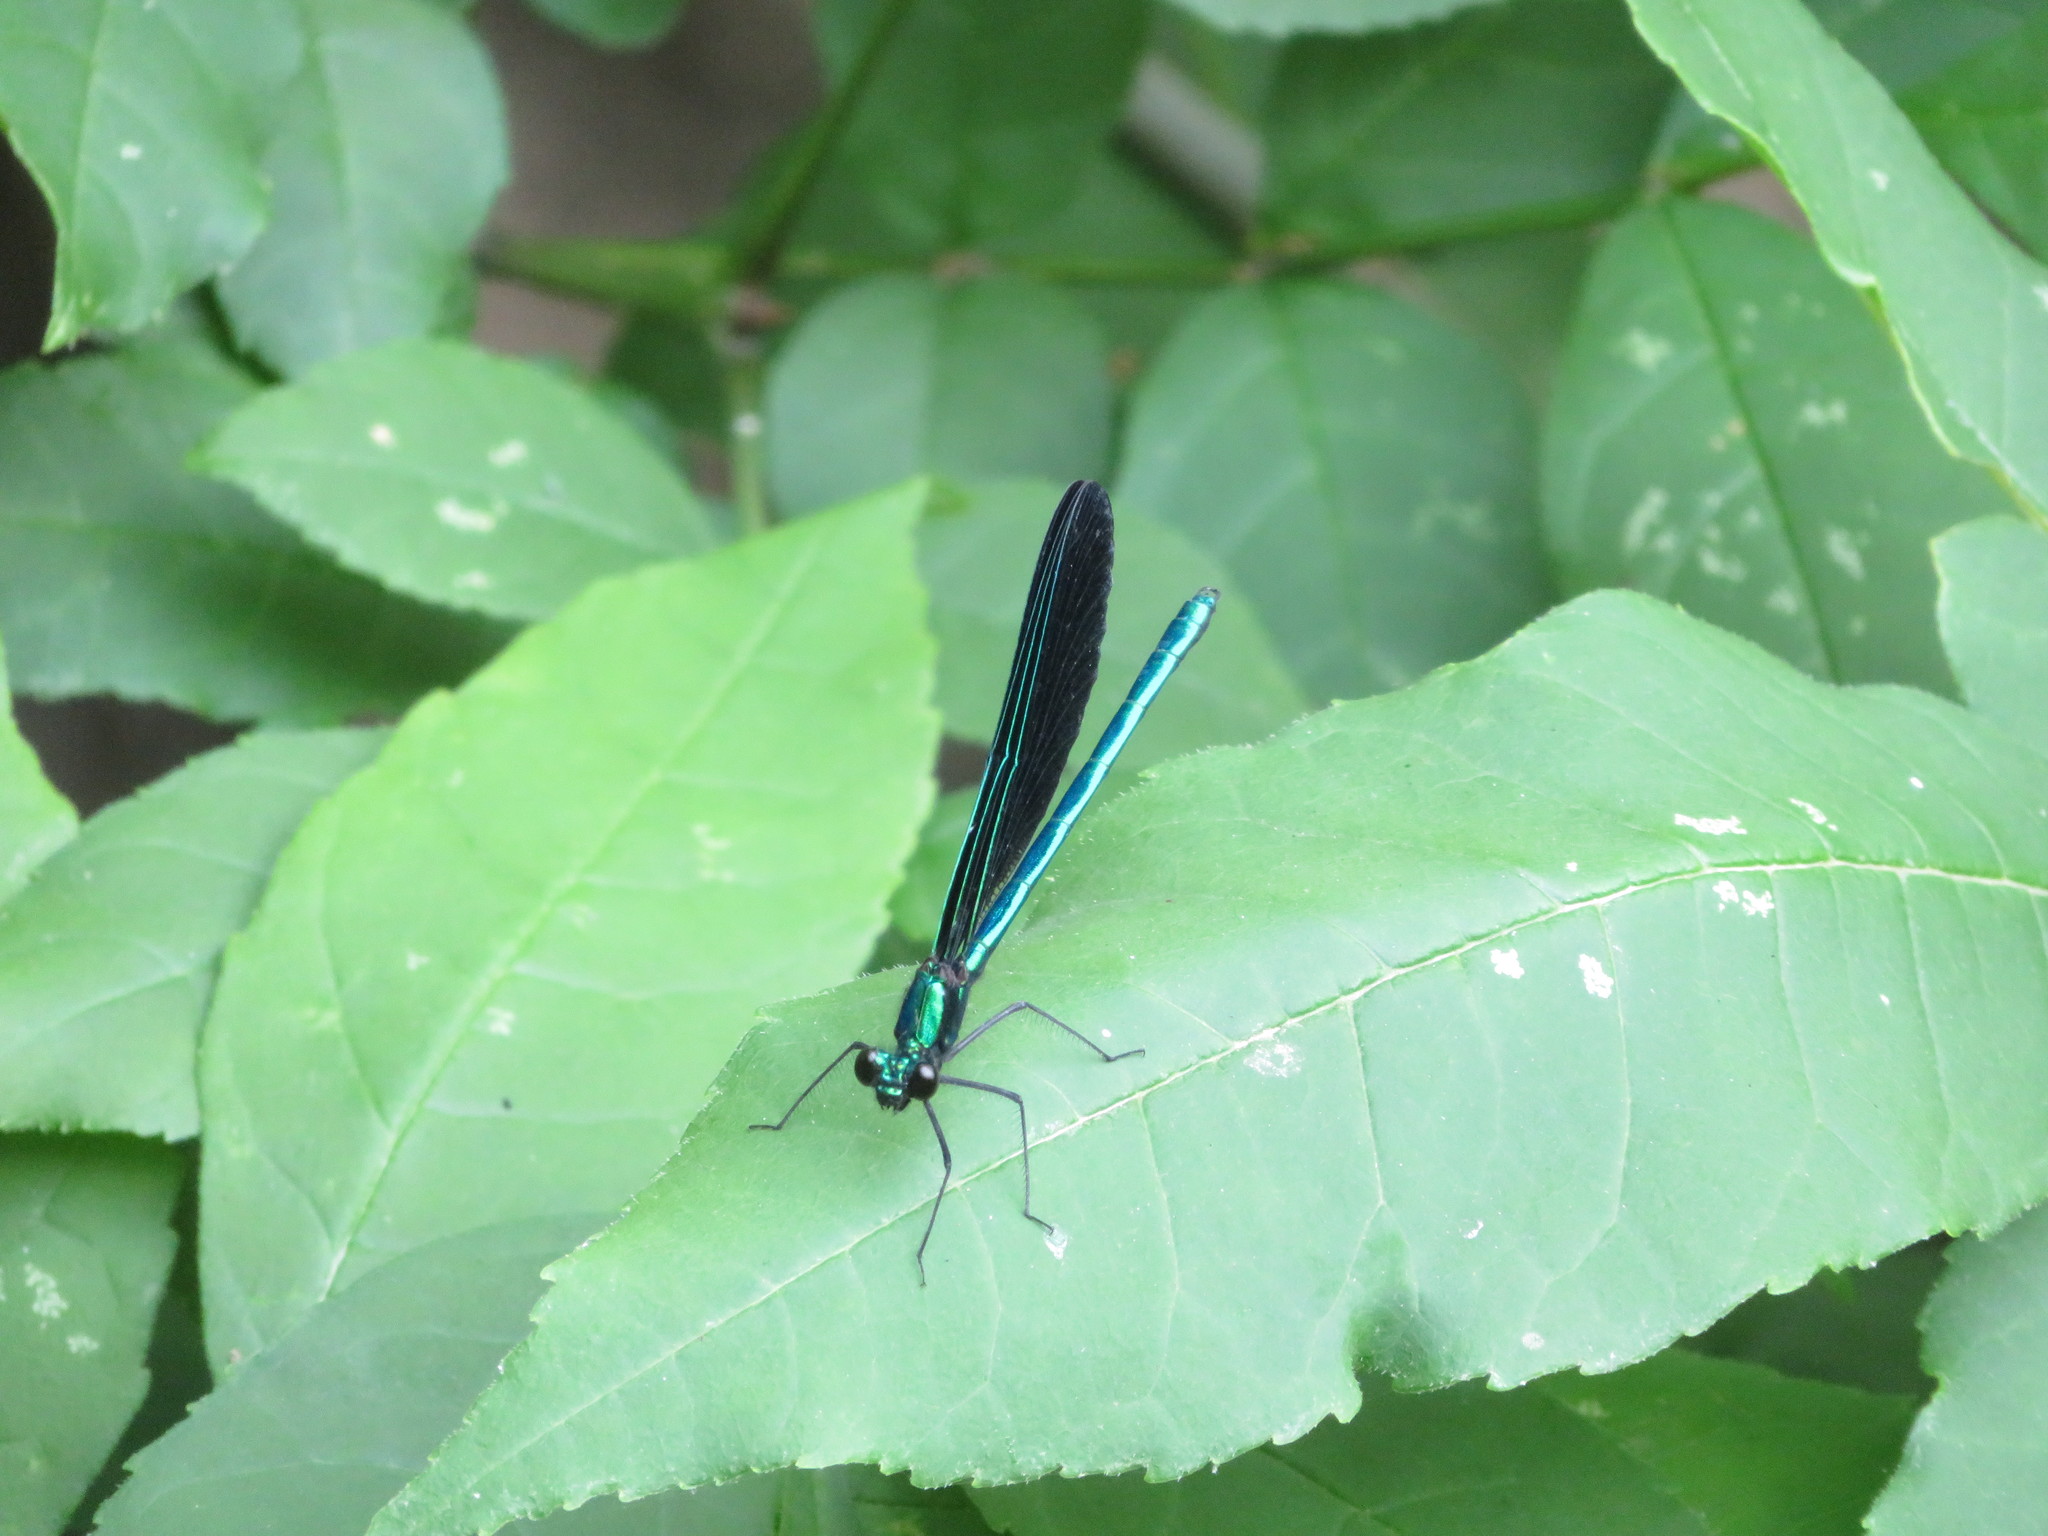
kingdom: Animalia
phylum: Arthropoda
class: Insecta
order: Odonata
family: Calopterygidae
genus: Calopteryx
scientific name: Calopteryx maculata
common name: Ebony jewelwing
